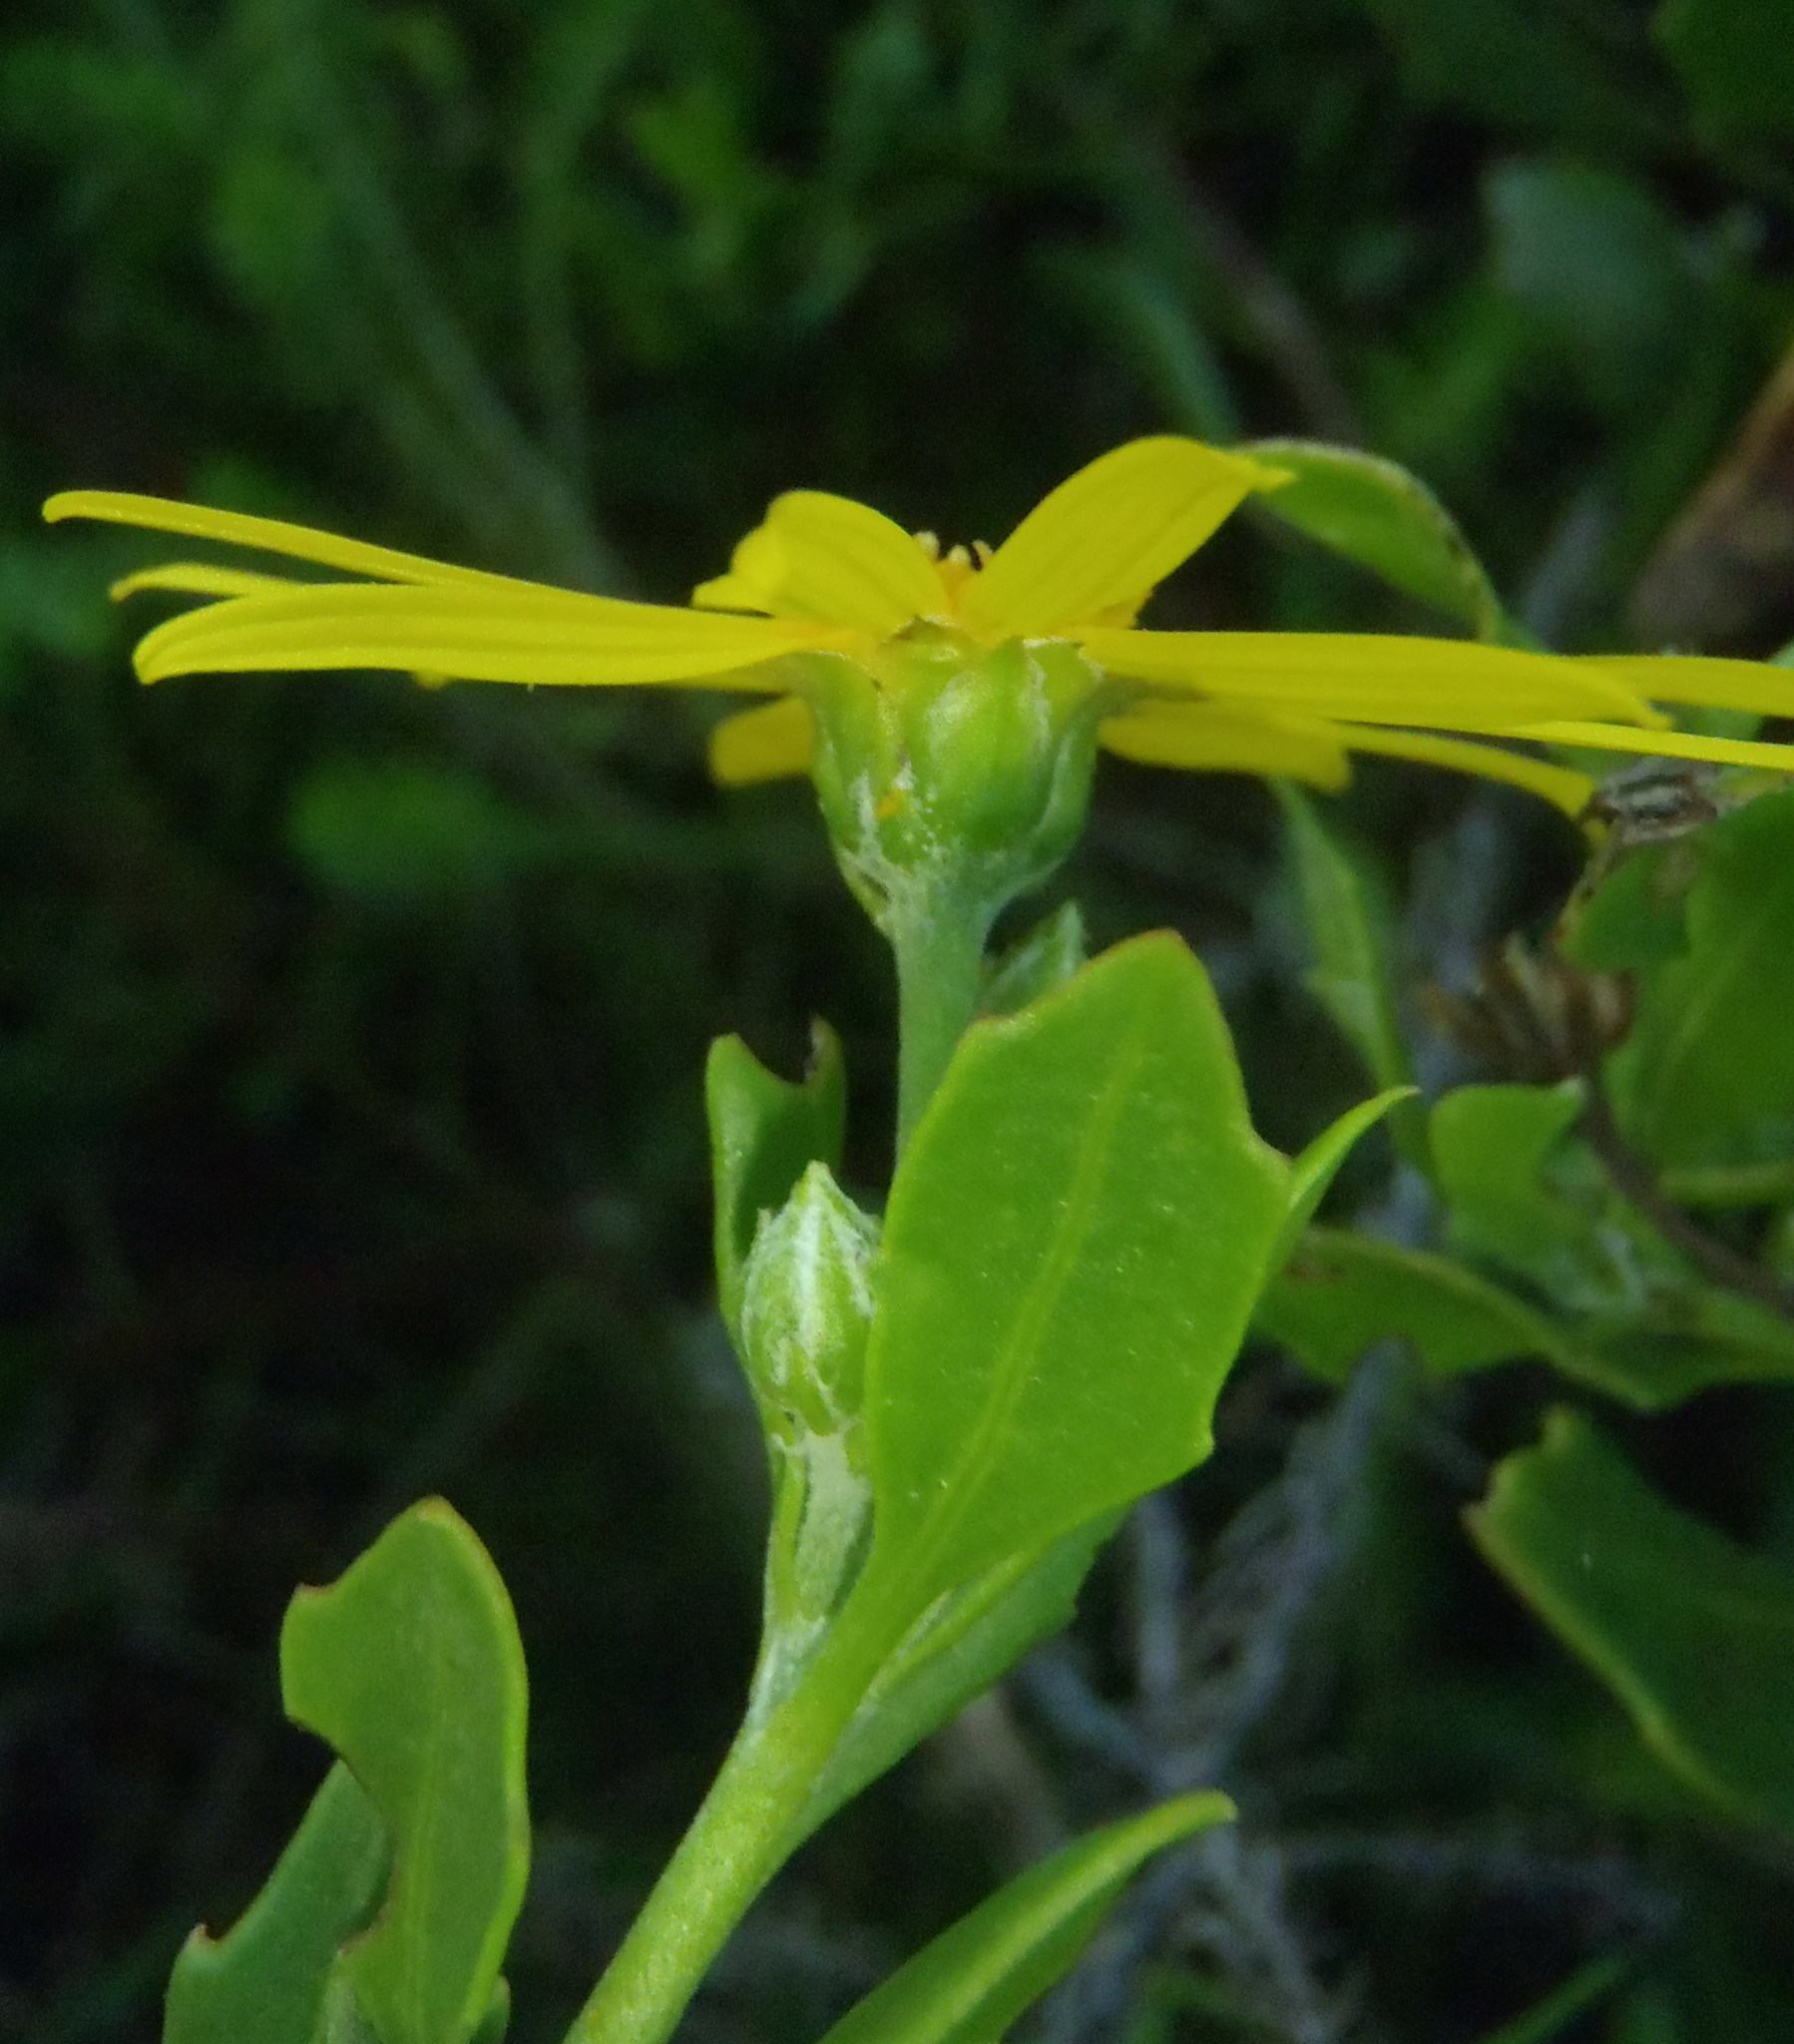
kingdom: Plantae
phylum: Tracheophyta
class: Magnoliopsida
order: Asterales
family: Asteraceae
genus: Osteospermum
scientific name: Osteospermum moniliferum
